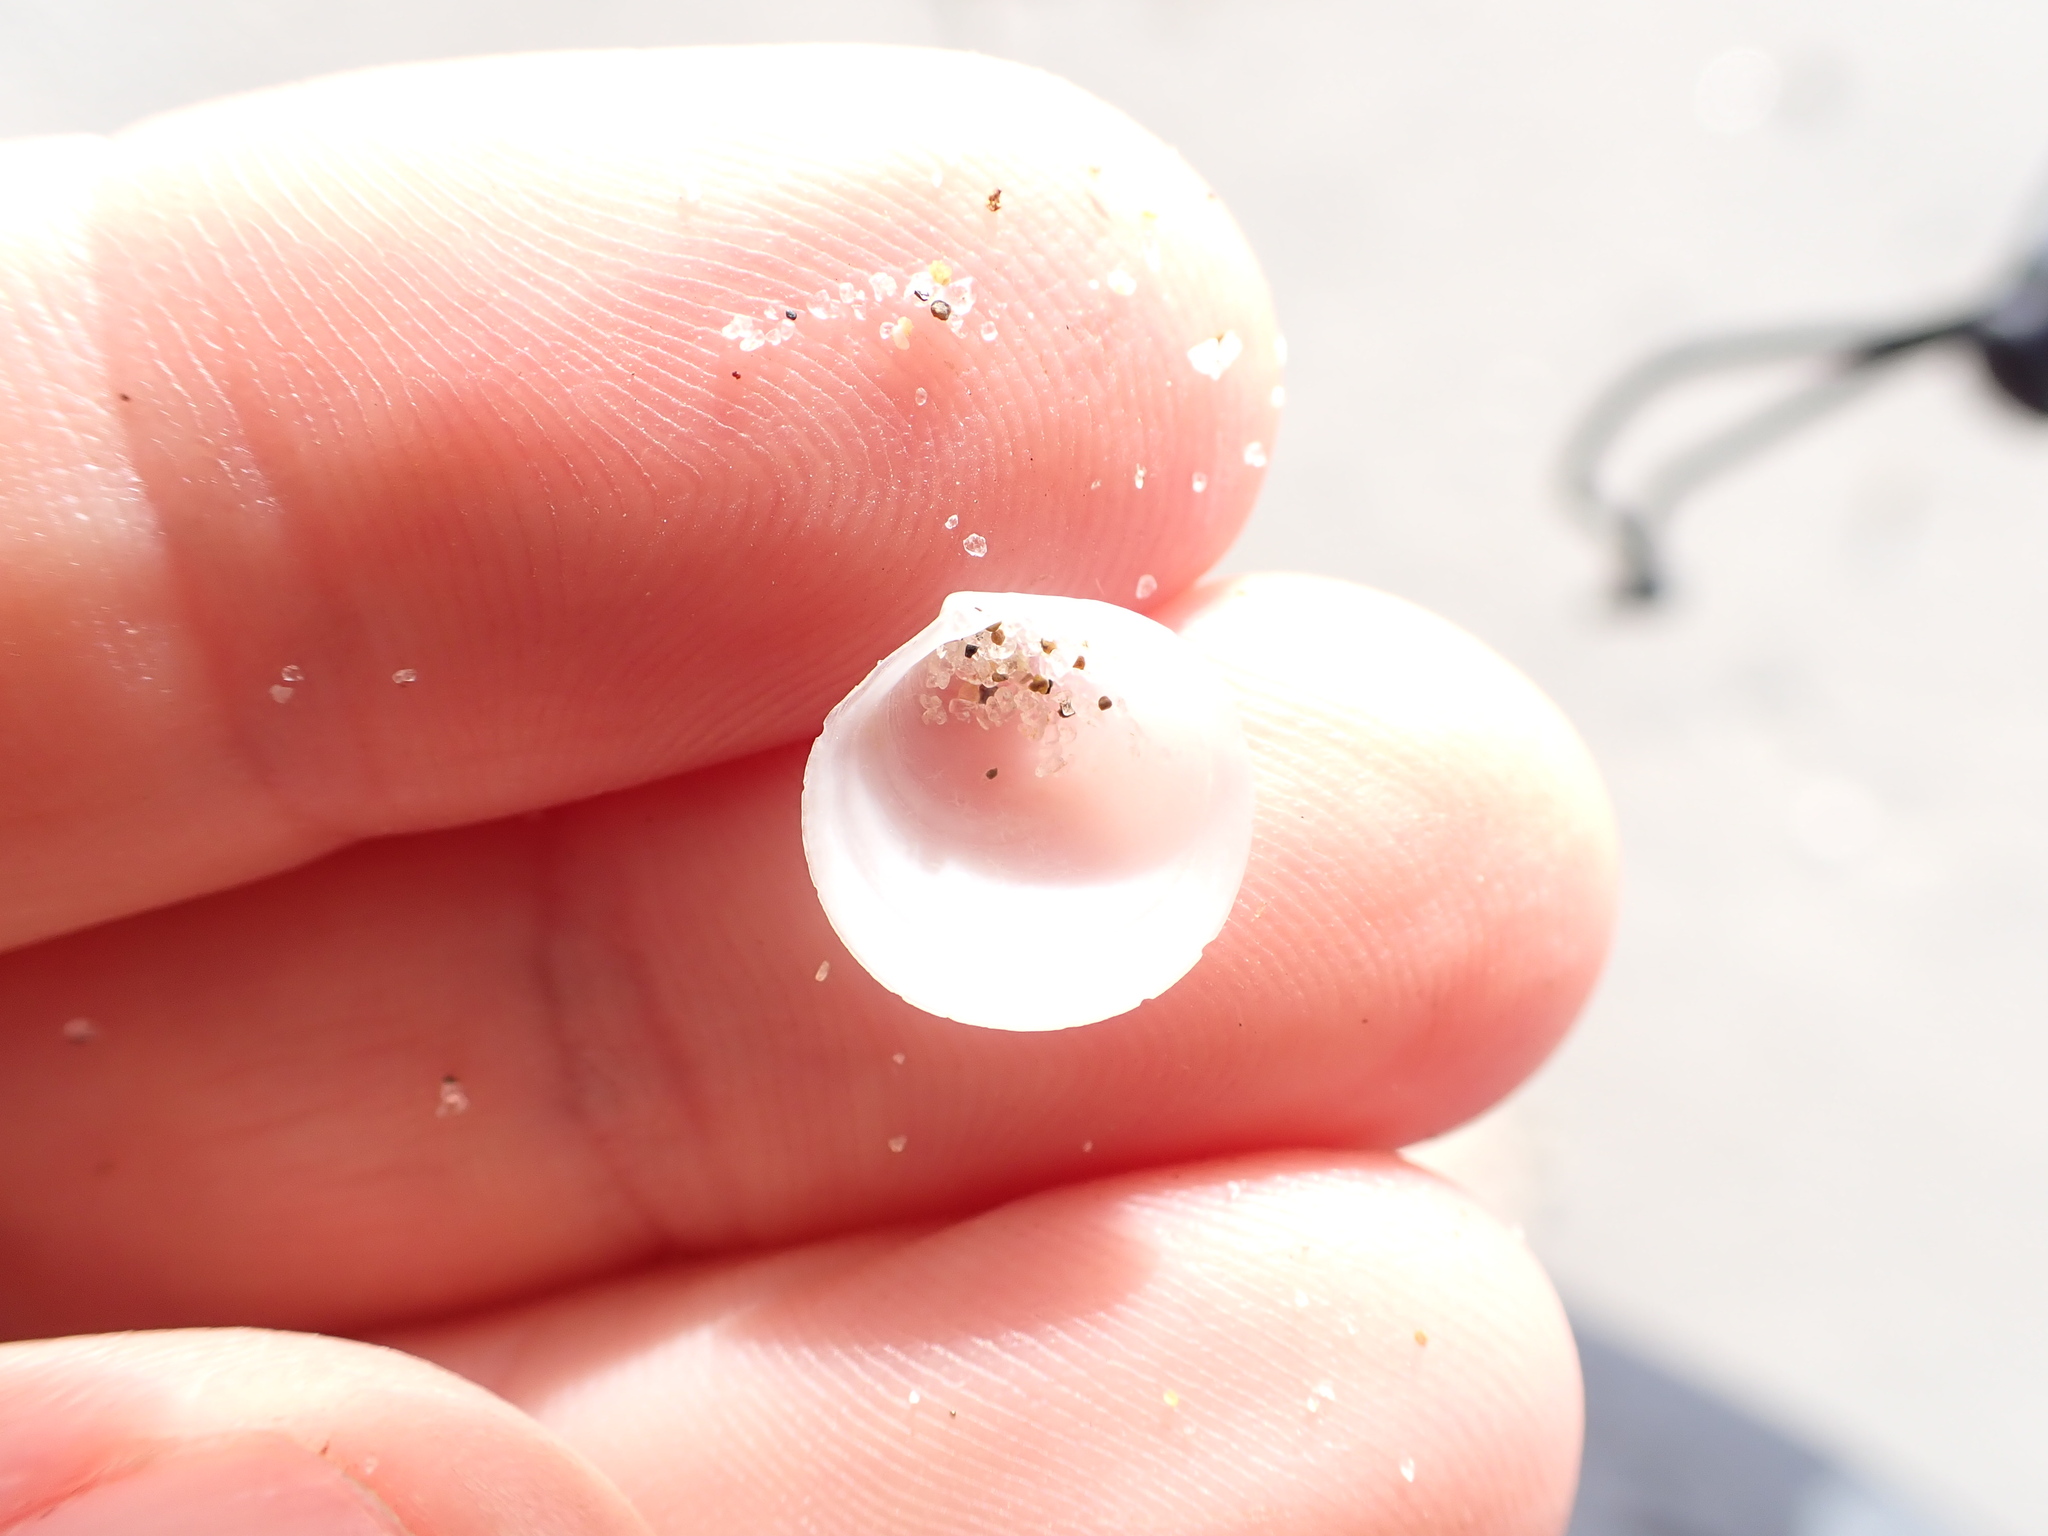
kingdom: Animalia
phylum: Mollusca
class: Bivalvia
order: Venerida
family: Ungulinidae
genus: Zemysia
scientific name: Zemysia zelandica
